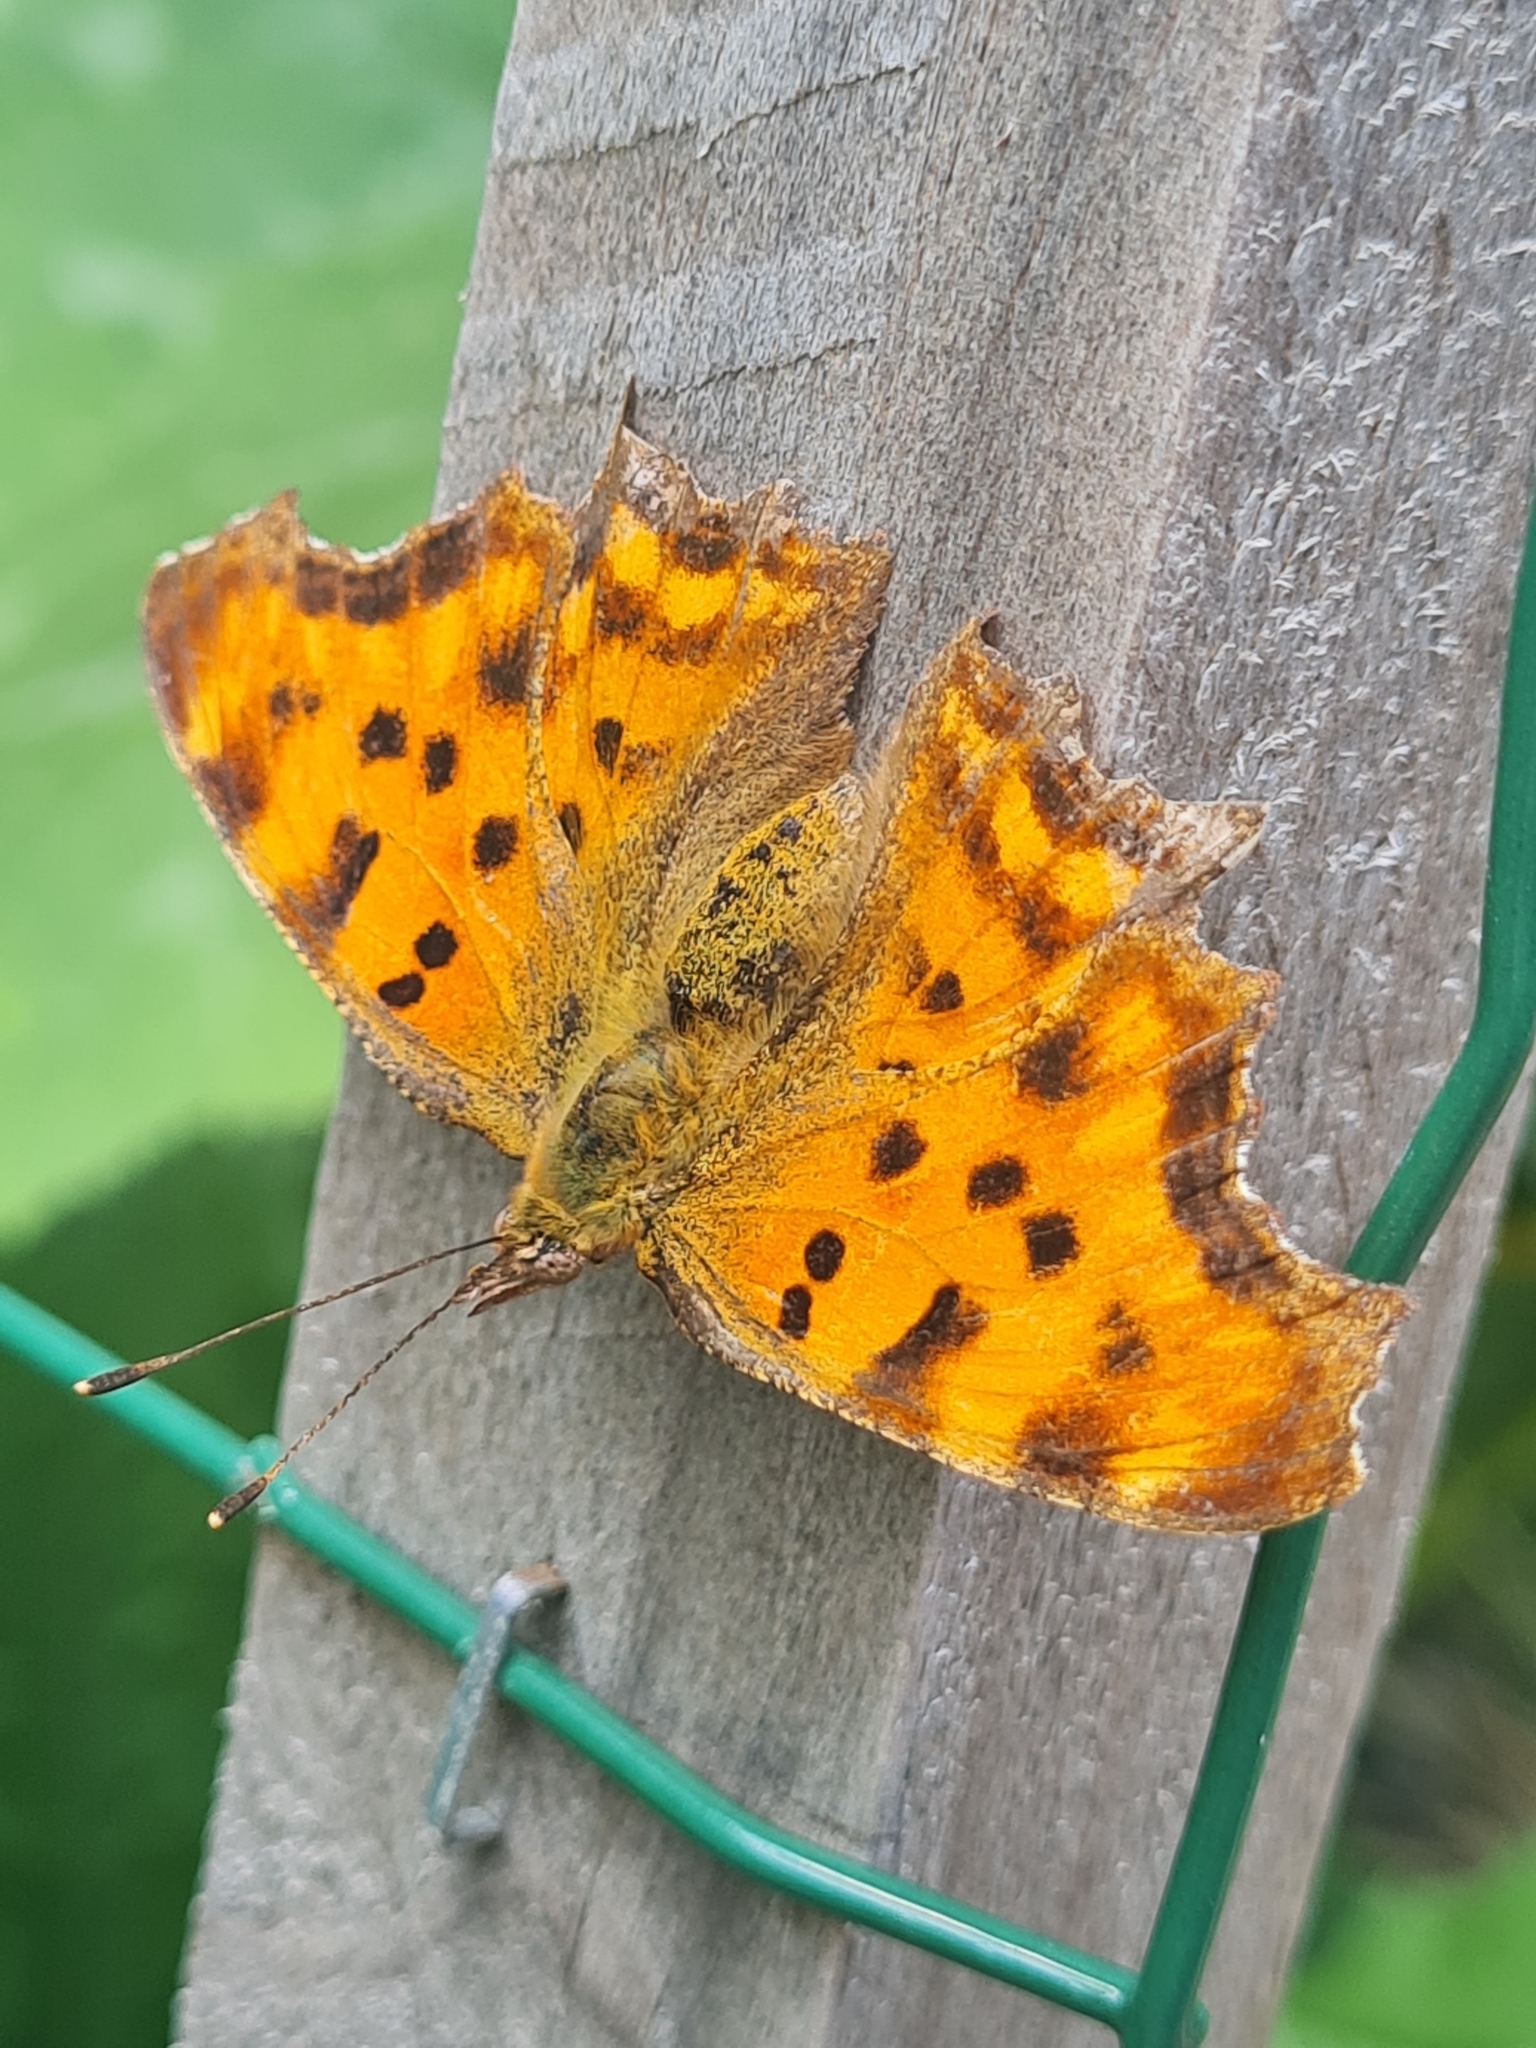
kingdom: Animalia
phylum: Arthropoda
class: Insecta
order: Lepidoptera
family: Nymphalidae
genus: Polygonia
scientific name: Polygonia c-album
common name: Comma
